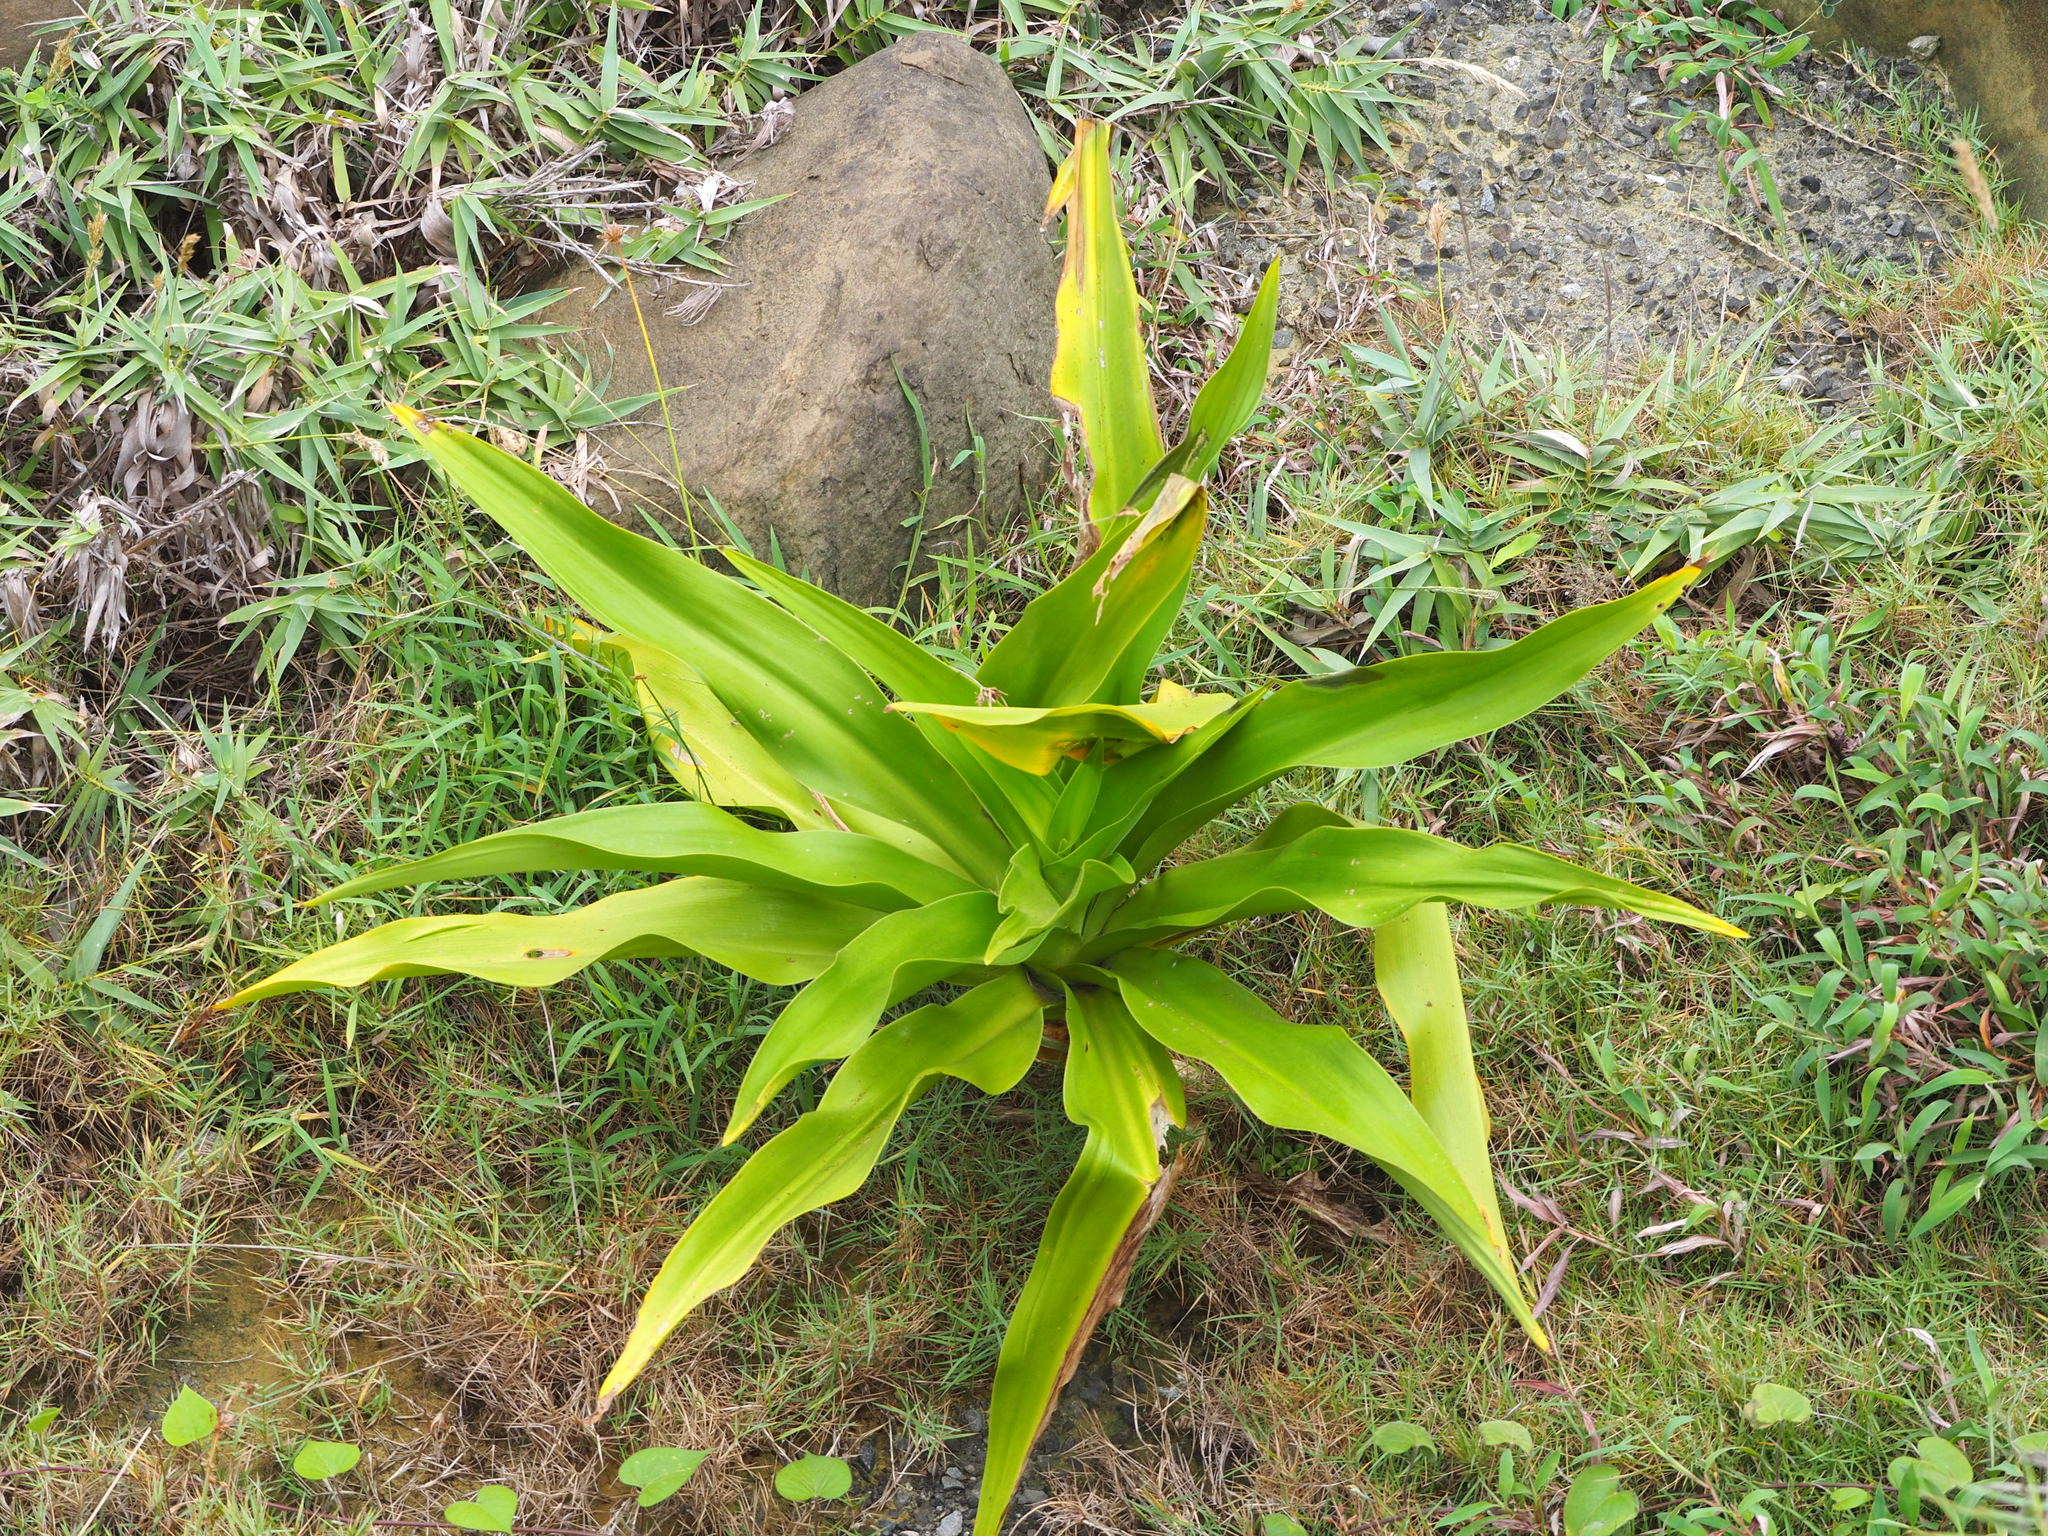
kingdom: Plantae
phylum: Tracheophyta
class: Liliopsida
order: Asparagales
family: Amaryllidaceae
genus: Crinum
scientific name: Crinum asiaticum
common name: Poisonbulb
